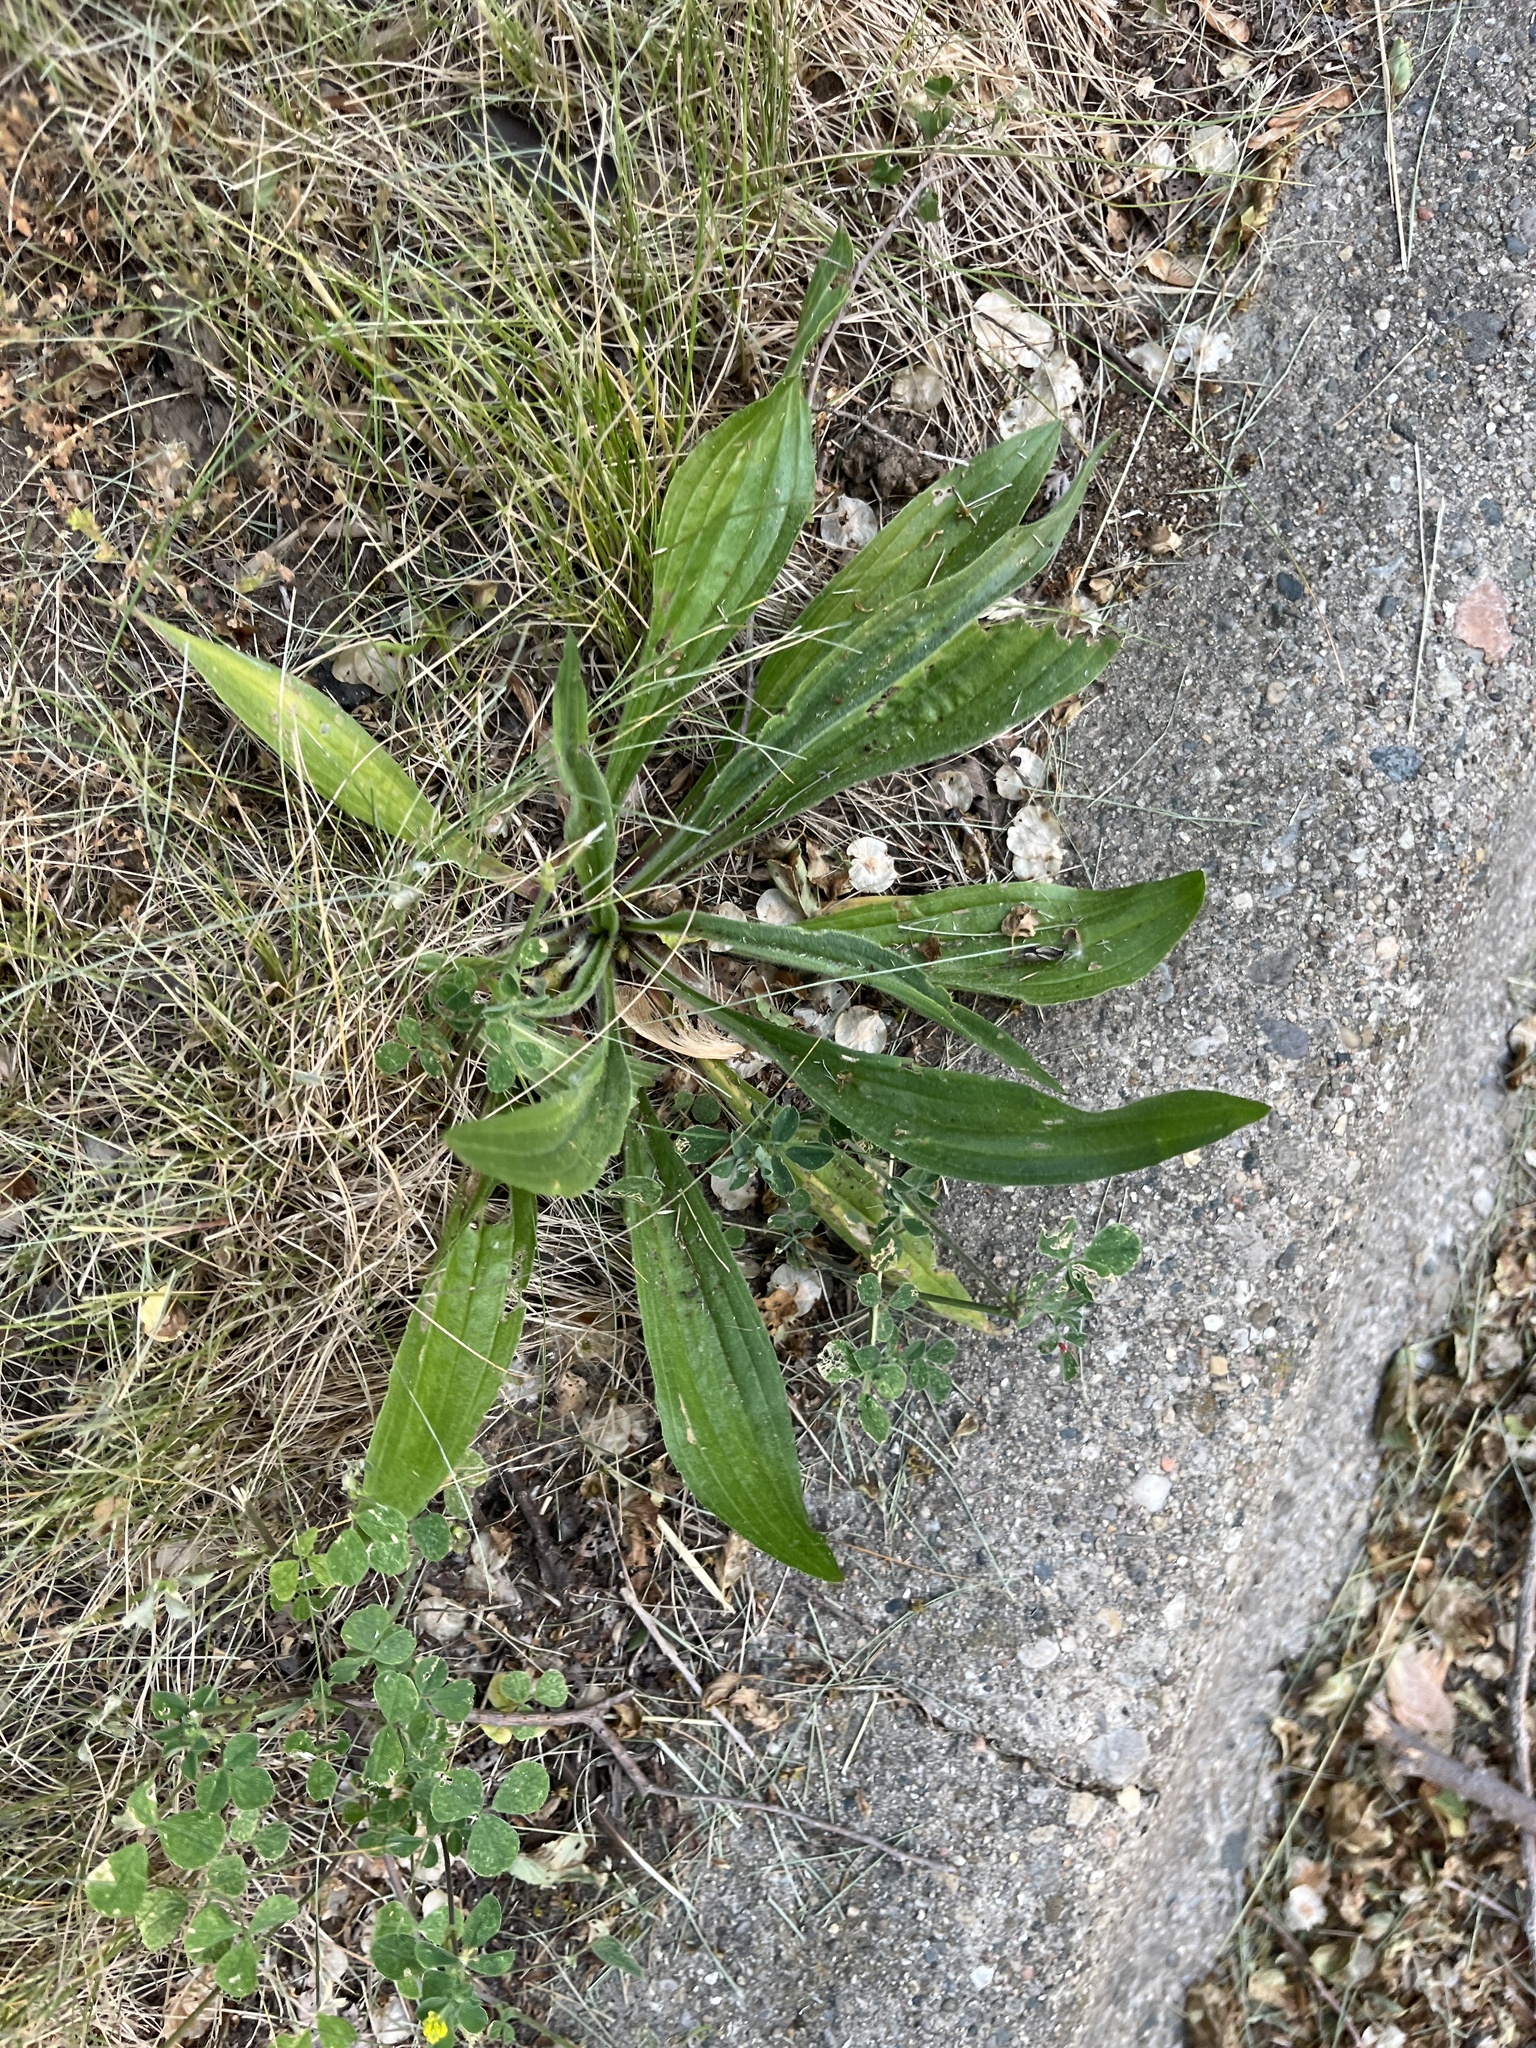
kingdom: Plantae
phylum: Tracheophyta
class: Magnoliopsida
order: Lamiales
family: Plantaginaceae
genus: Plantago
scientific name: Plantago lanceolata
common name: Ribwort plantain
